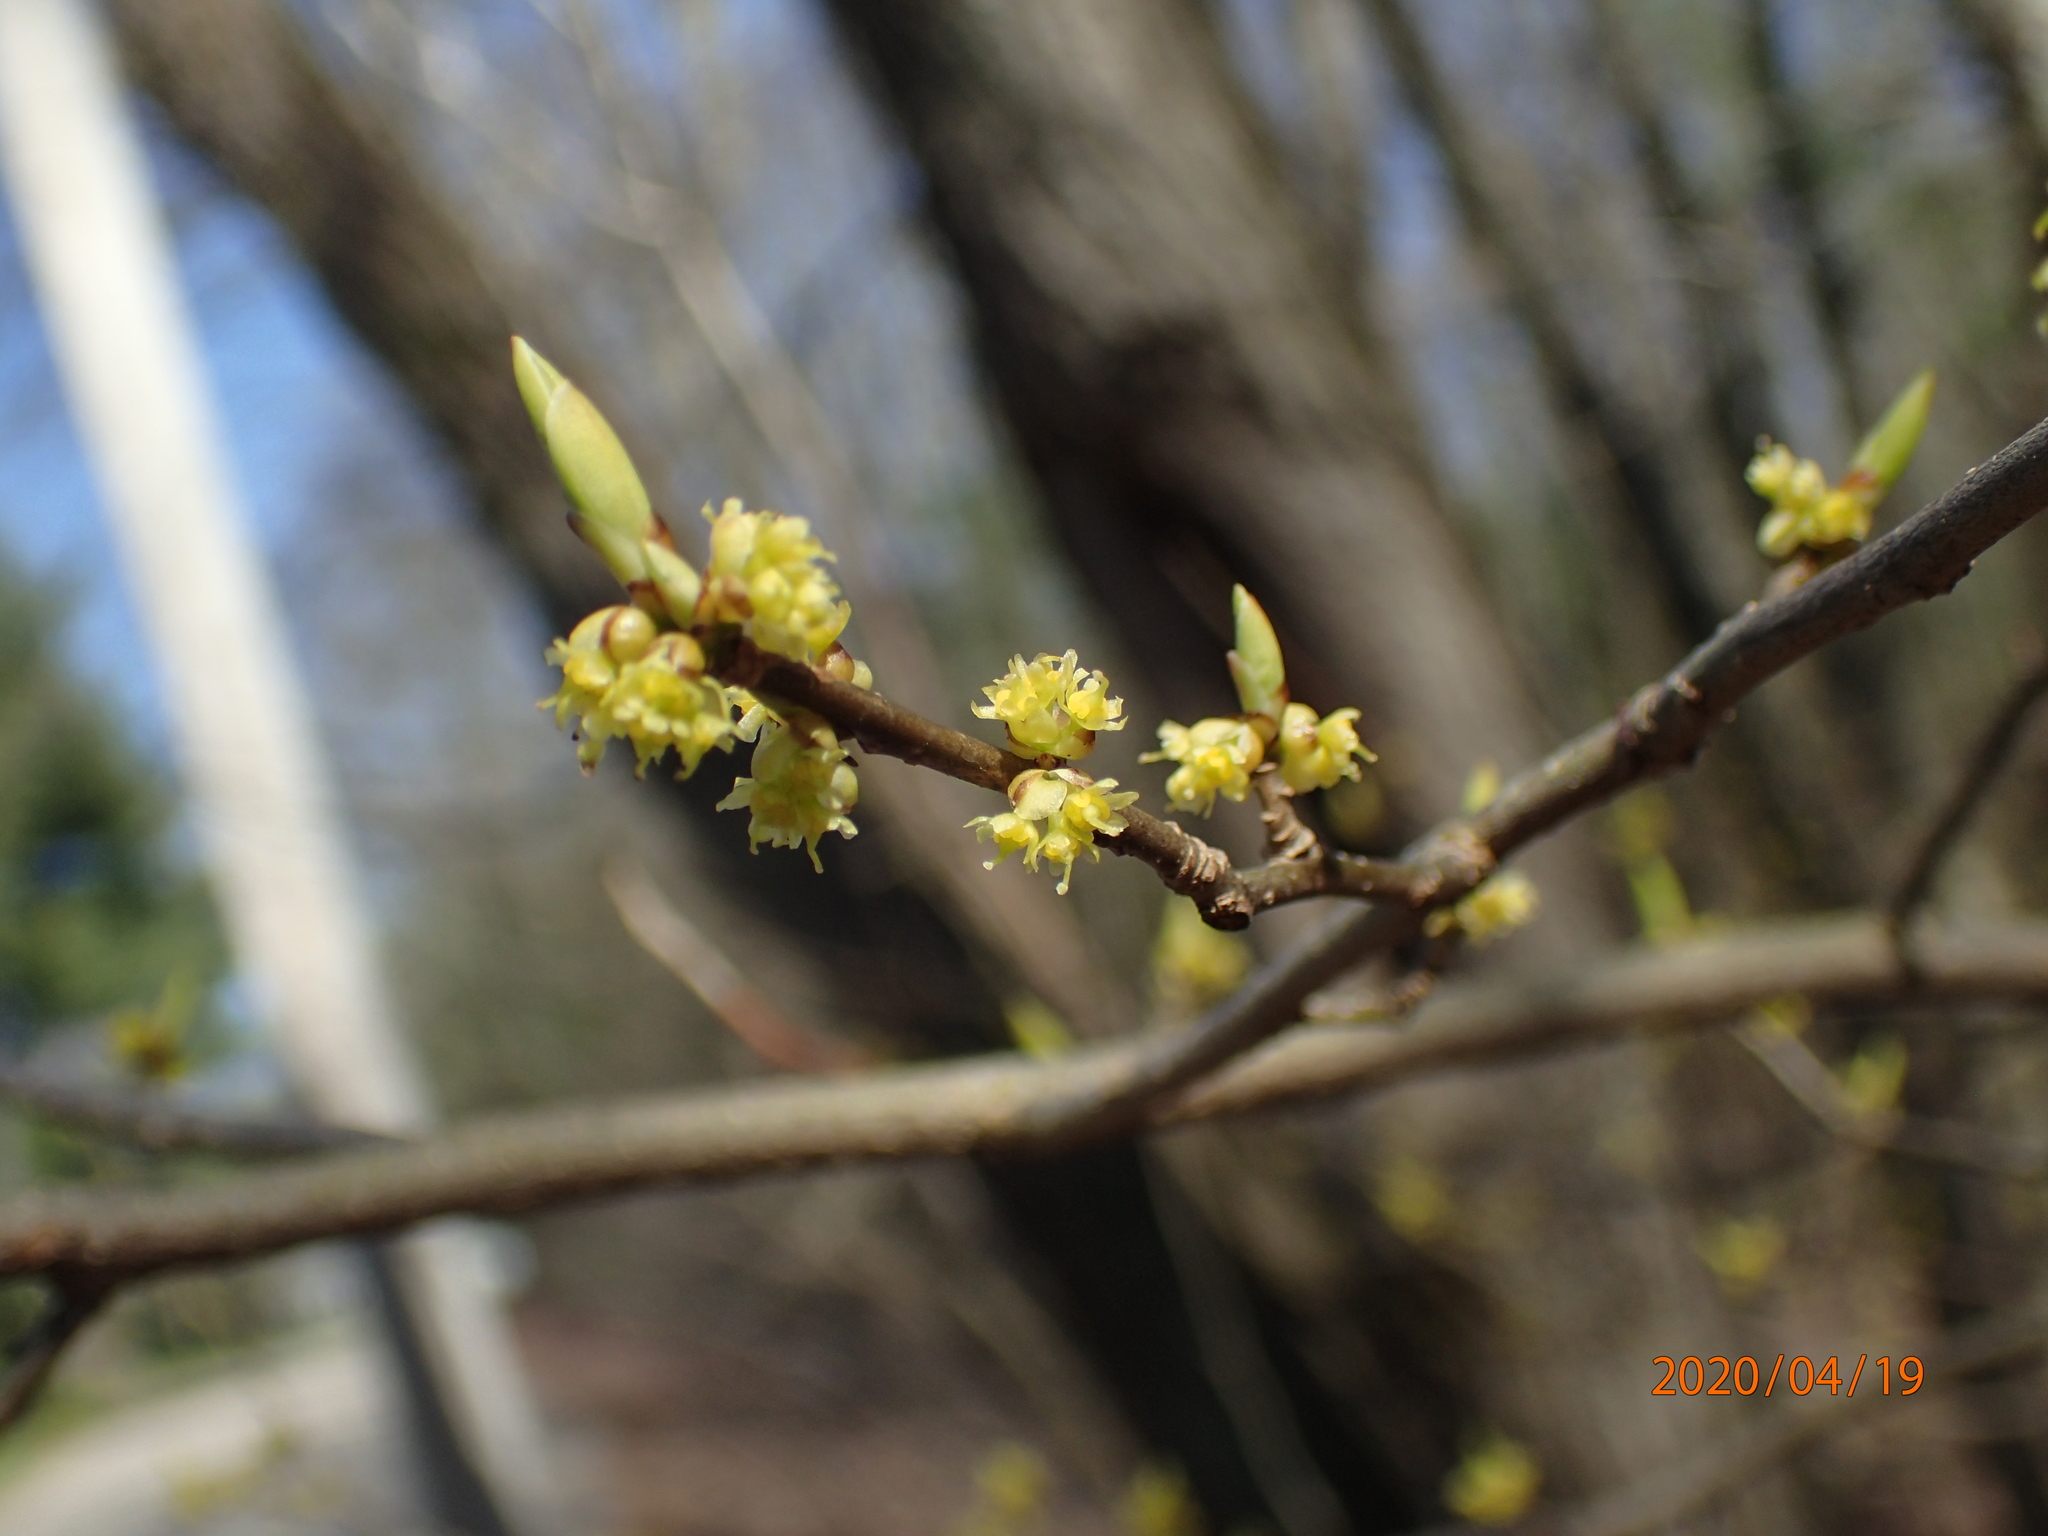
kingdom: Plantae
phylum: Tracheophyta
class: Magnoliopsida
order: Laurales
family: Lauraceae
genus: Lindera
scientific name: Lindera benzoin
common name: Spicebush
